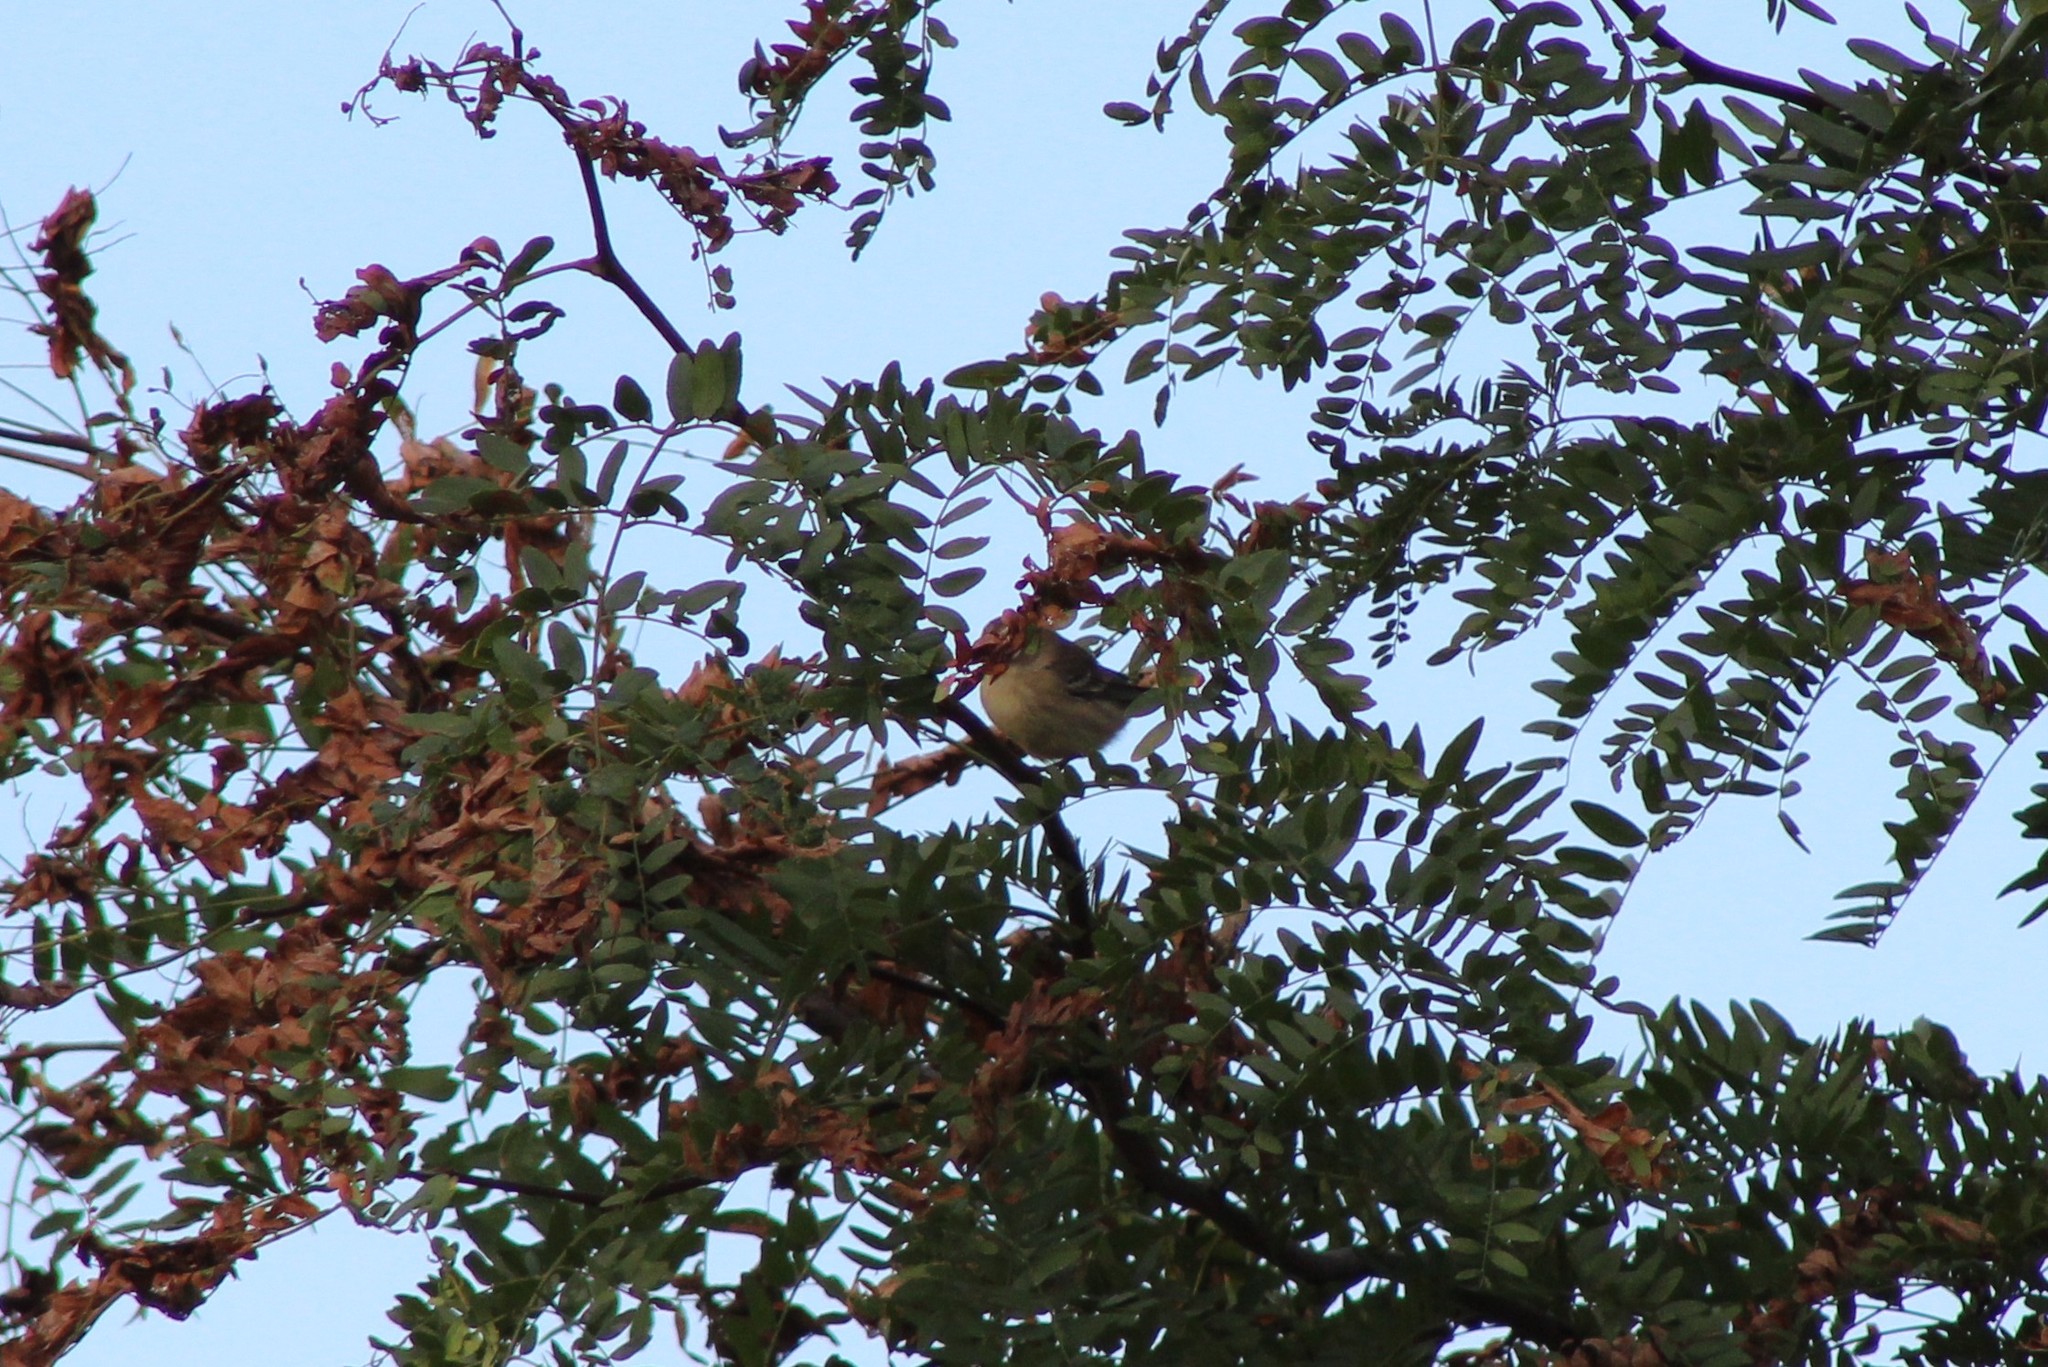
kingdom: Animalia
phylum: Chordata
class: Aves
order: Passeriformes
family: Parulidae
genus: Setophaga
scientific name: Setophaga coronata
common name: Myrtle warbler
